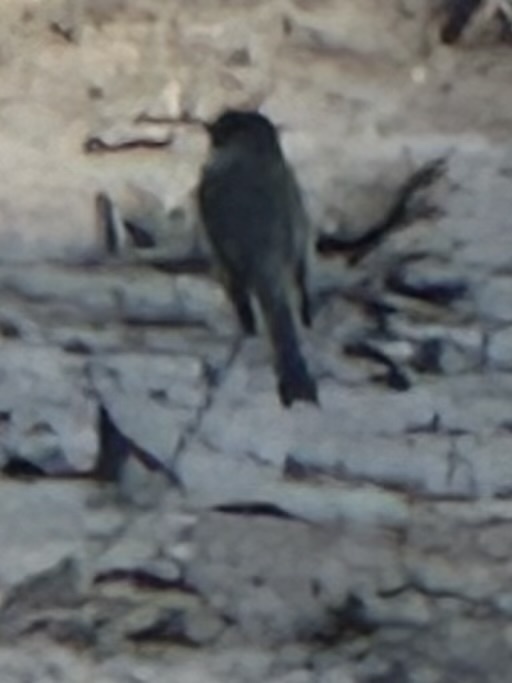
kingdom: Animalia
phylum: Chordata
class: Aves
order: Passeriformes
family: Tyrannidae
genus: Sayornis
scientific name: Sayornis phoebe
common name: Eastern phoebe
